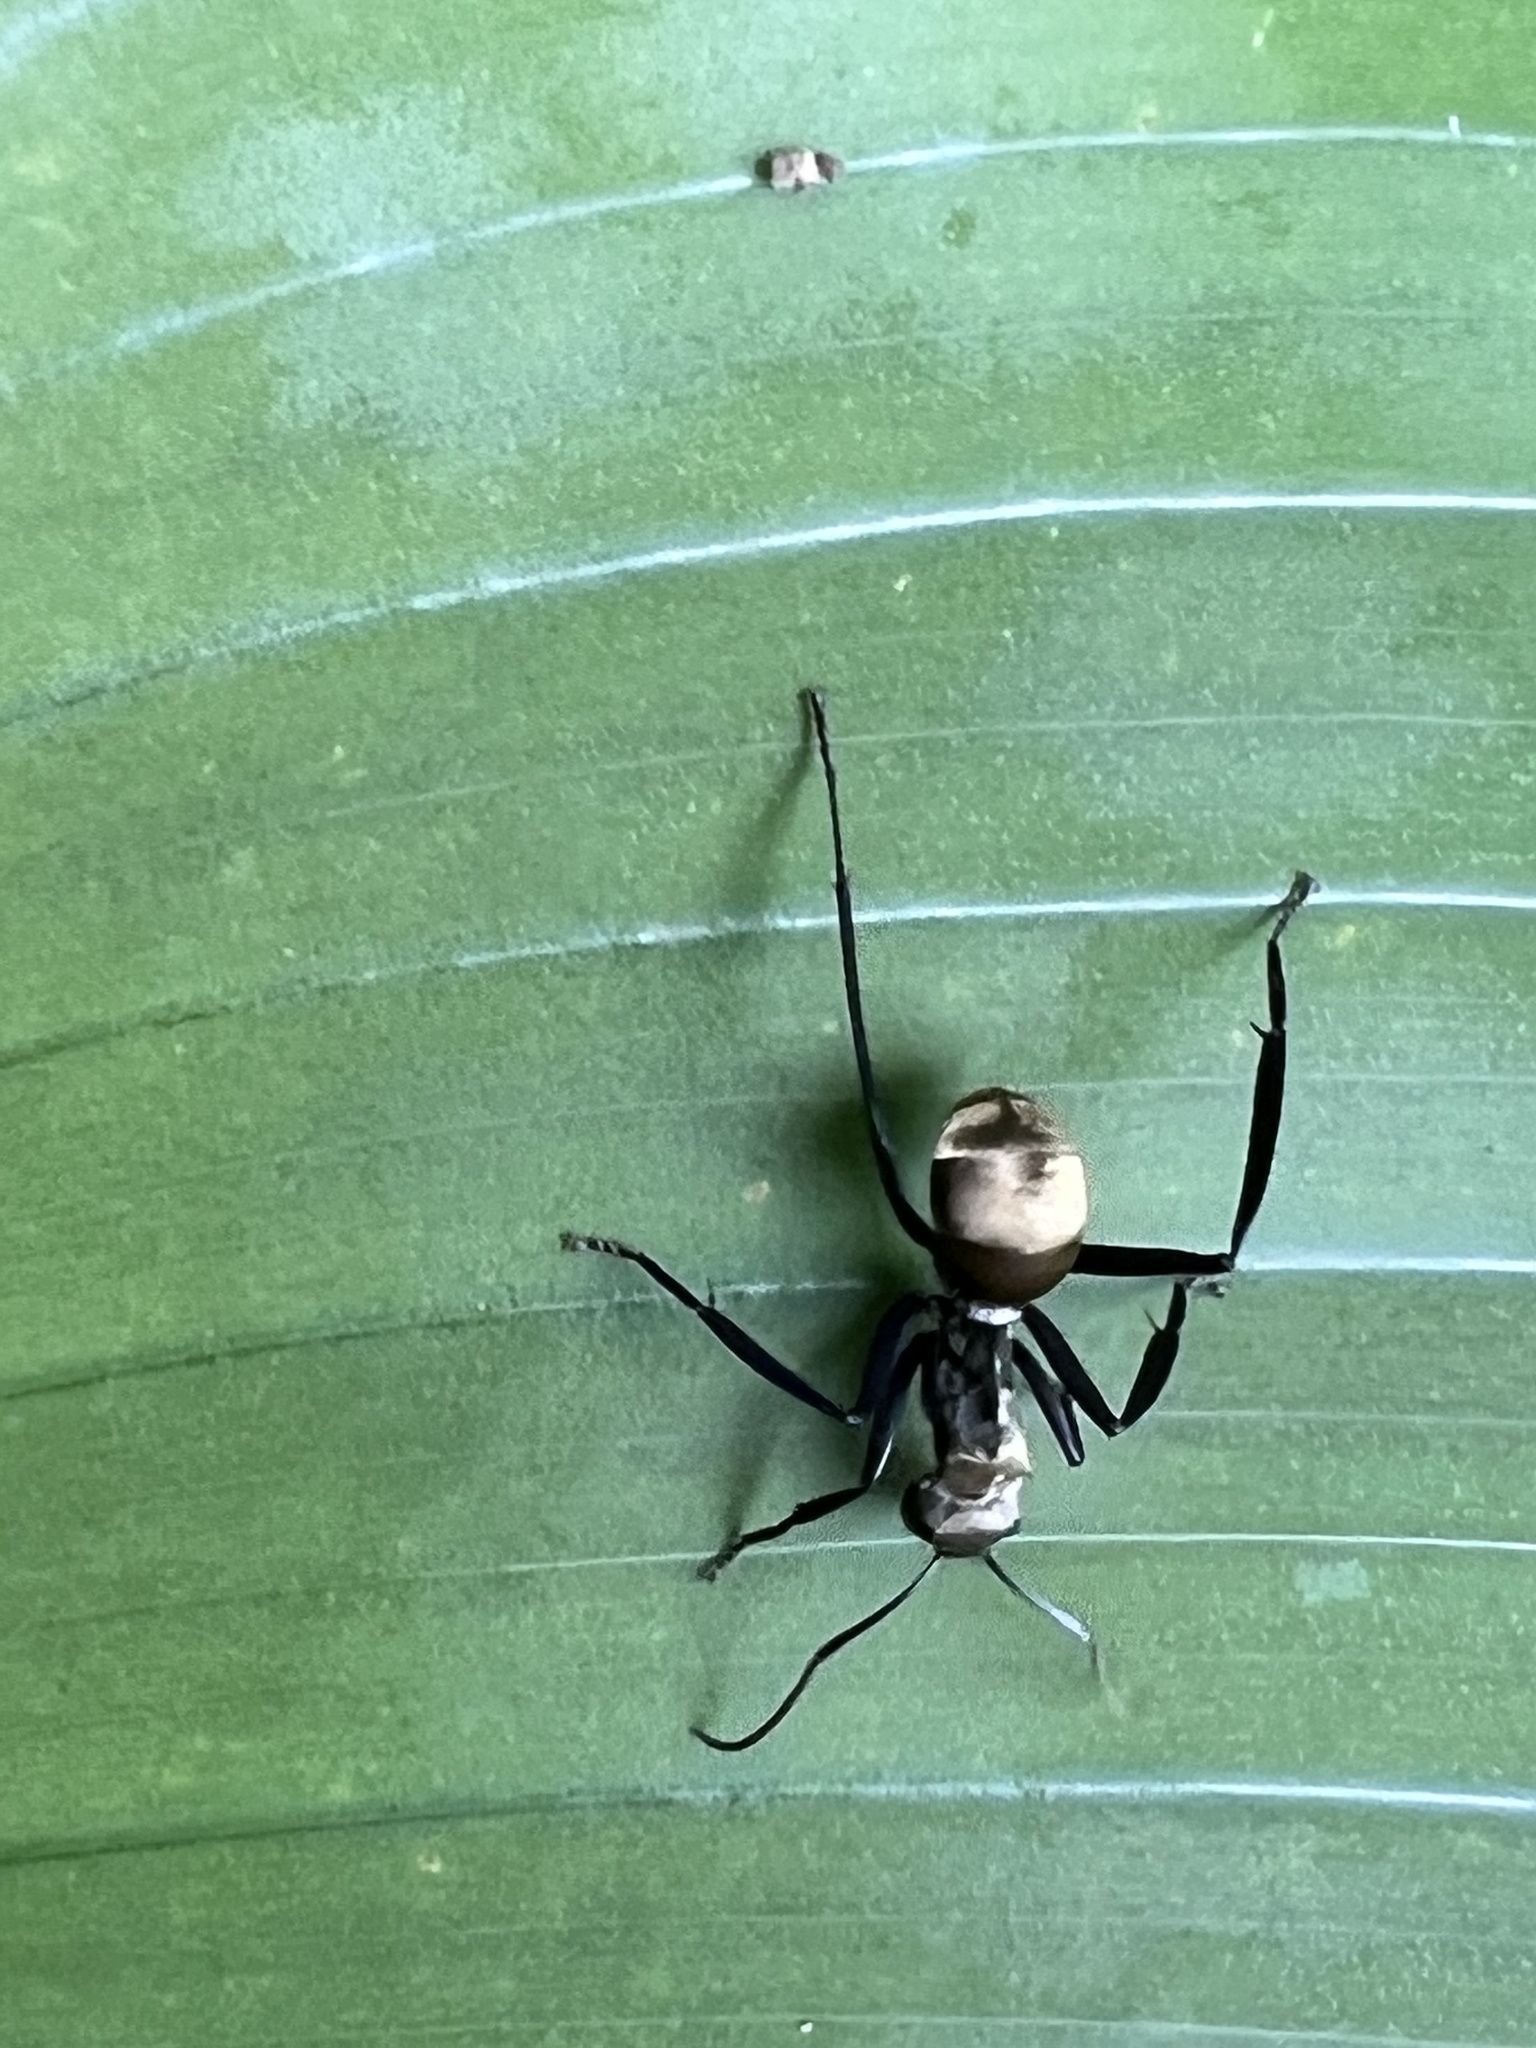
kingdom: Animalia
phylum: Arthropoda
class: Insecta
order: Hymenoptera
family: Formicidae
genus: Camponotus
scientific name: Camponotus sericeiventris
